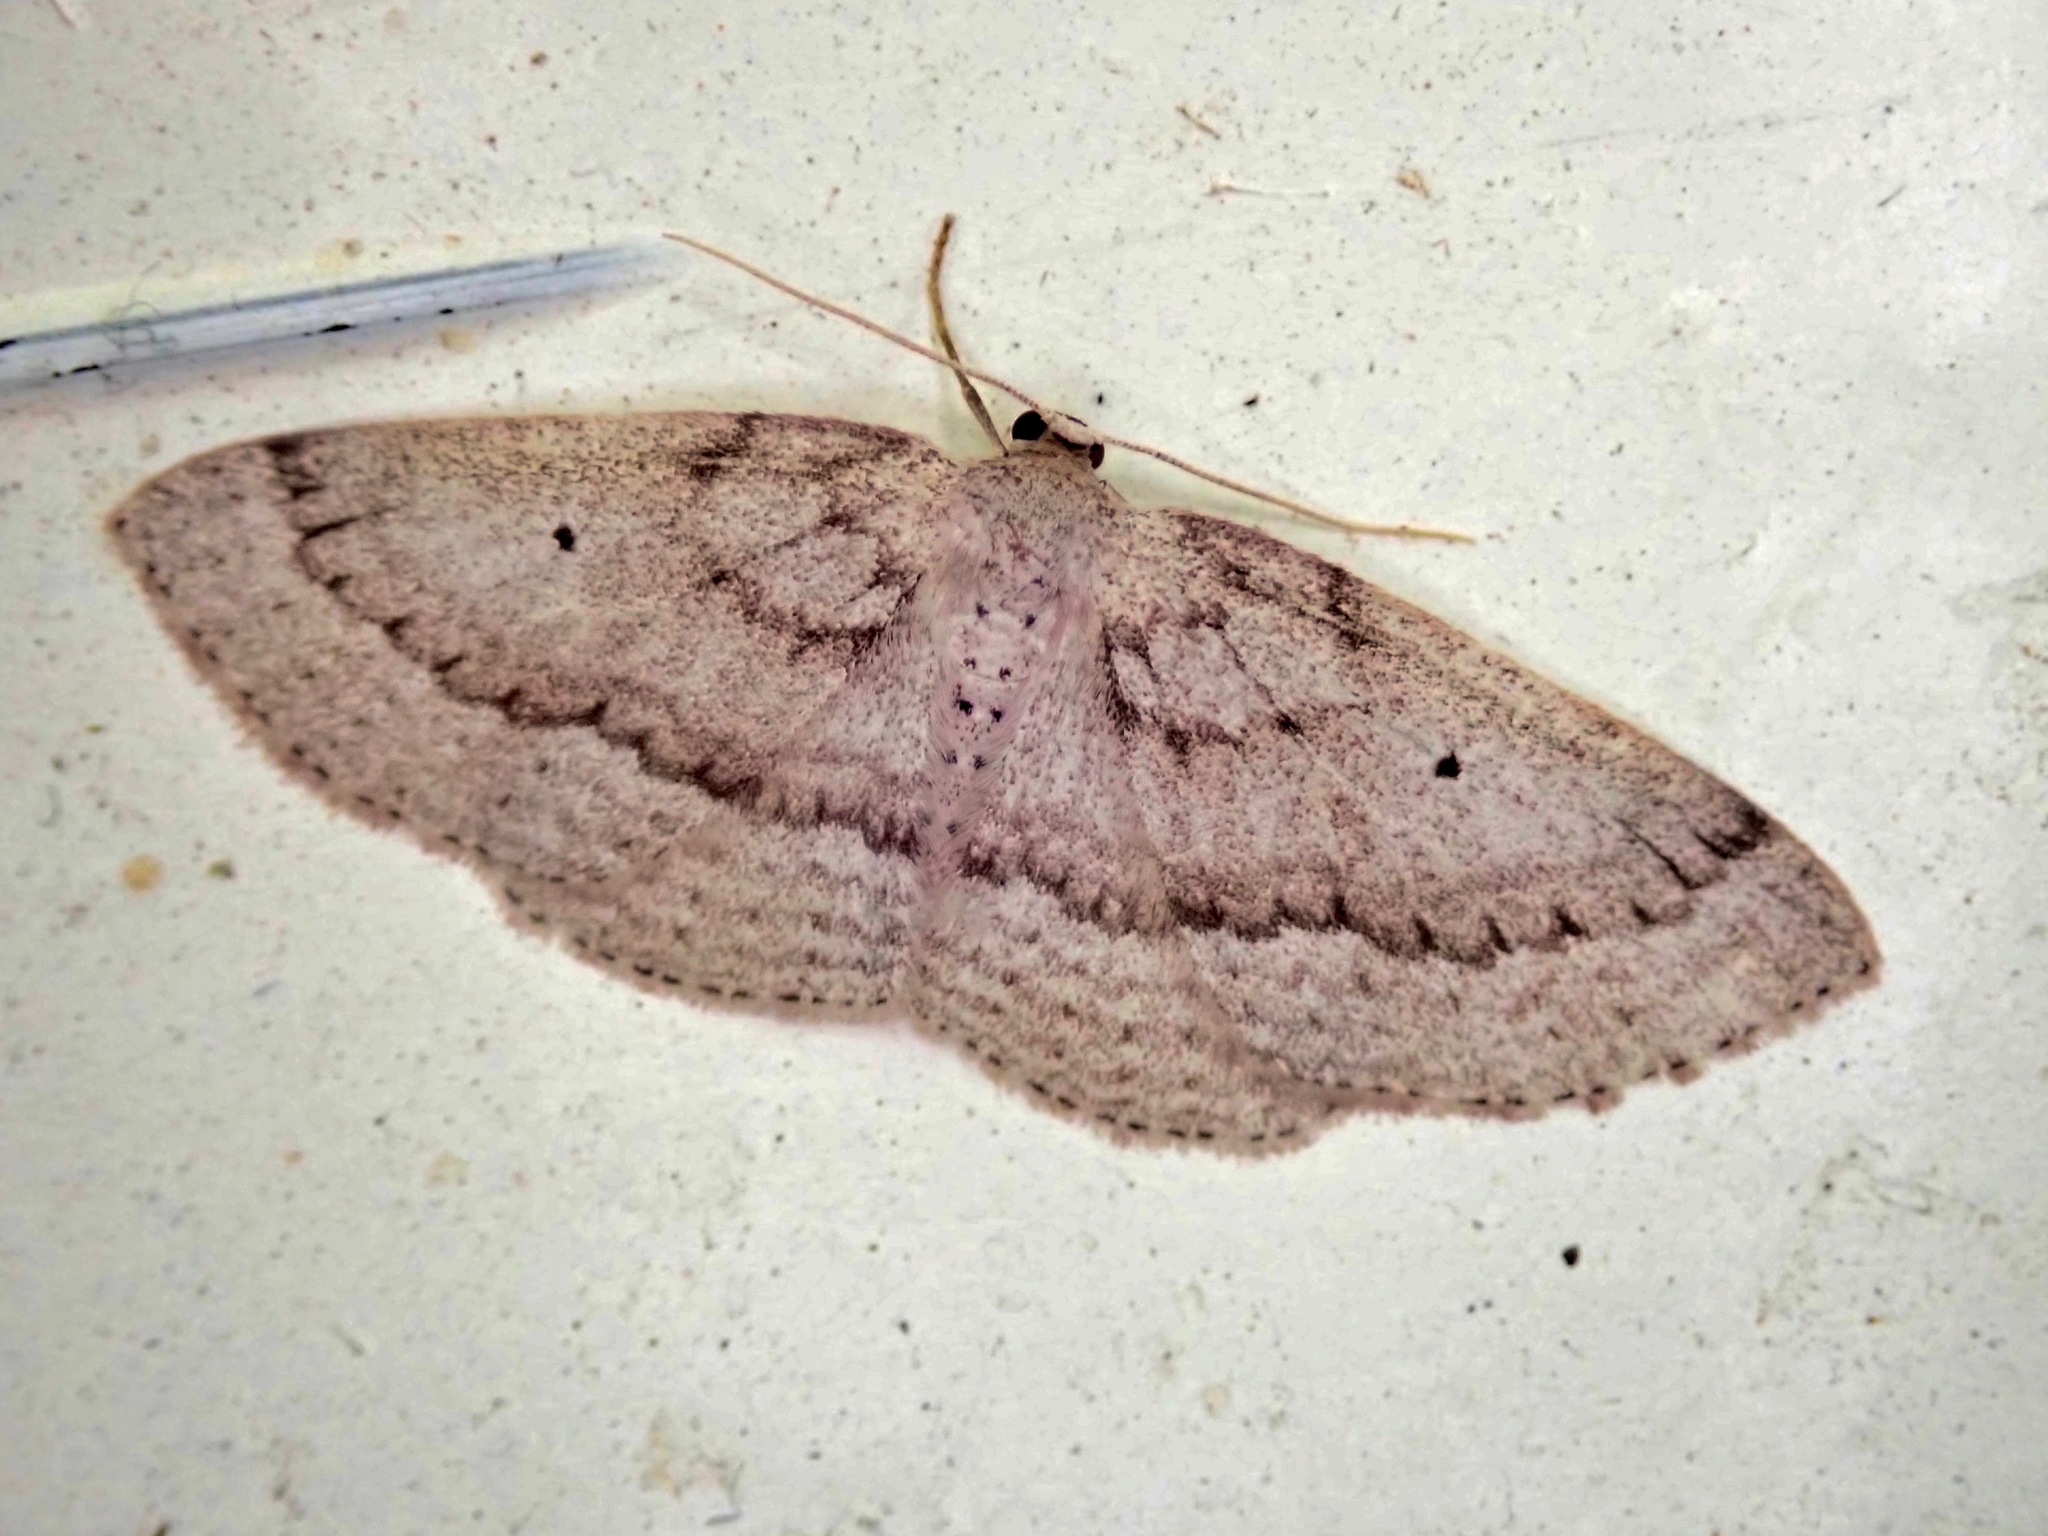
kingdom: Animalia
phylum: Arthropoda
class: Insecta
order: Lepidoptera
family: Geometridae
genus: Poecilasthena
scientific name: Poecilasthena schistaria
